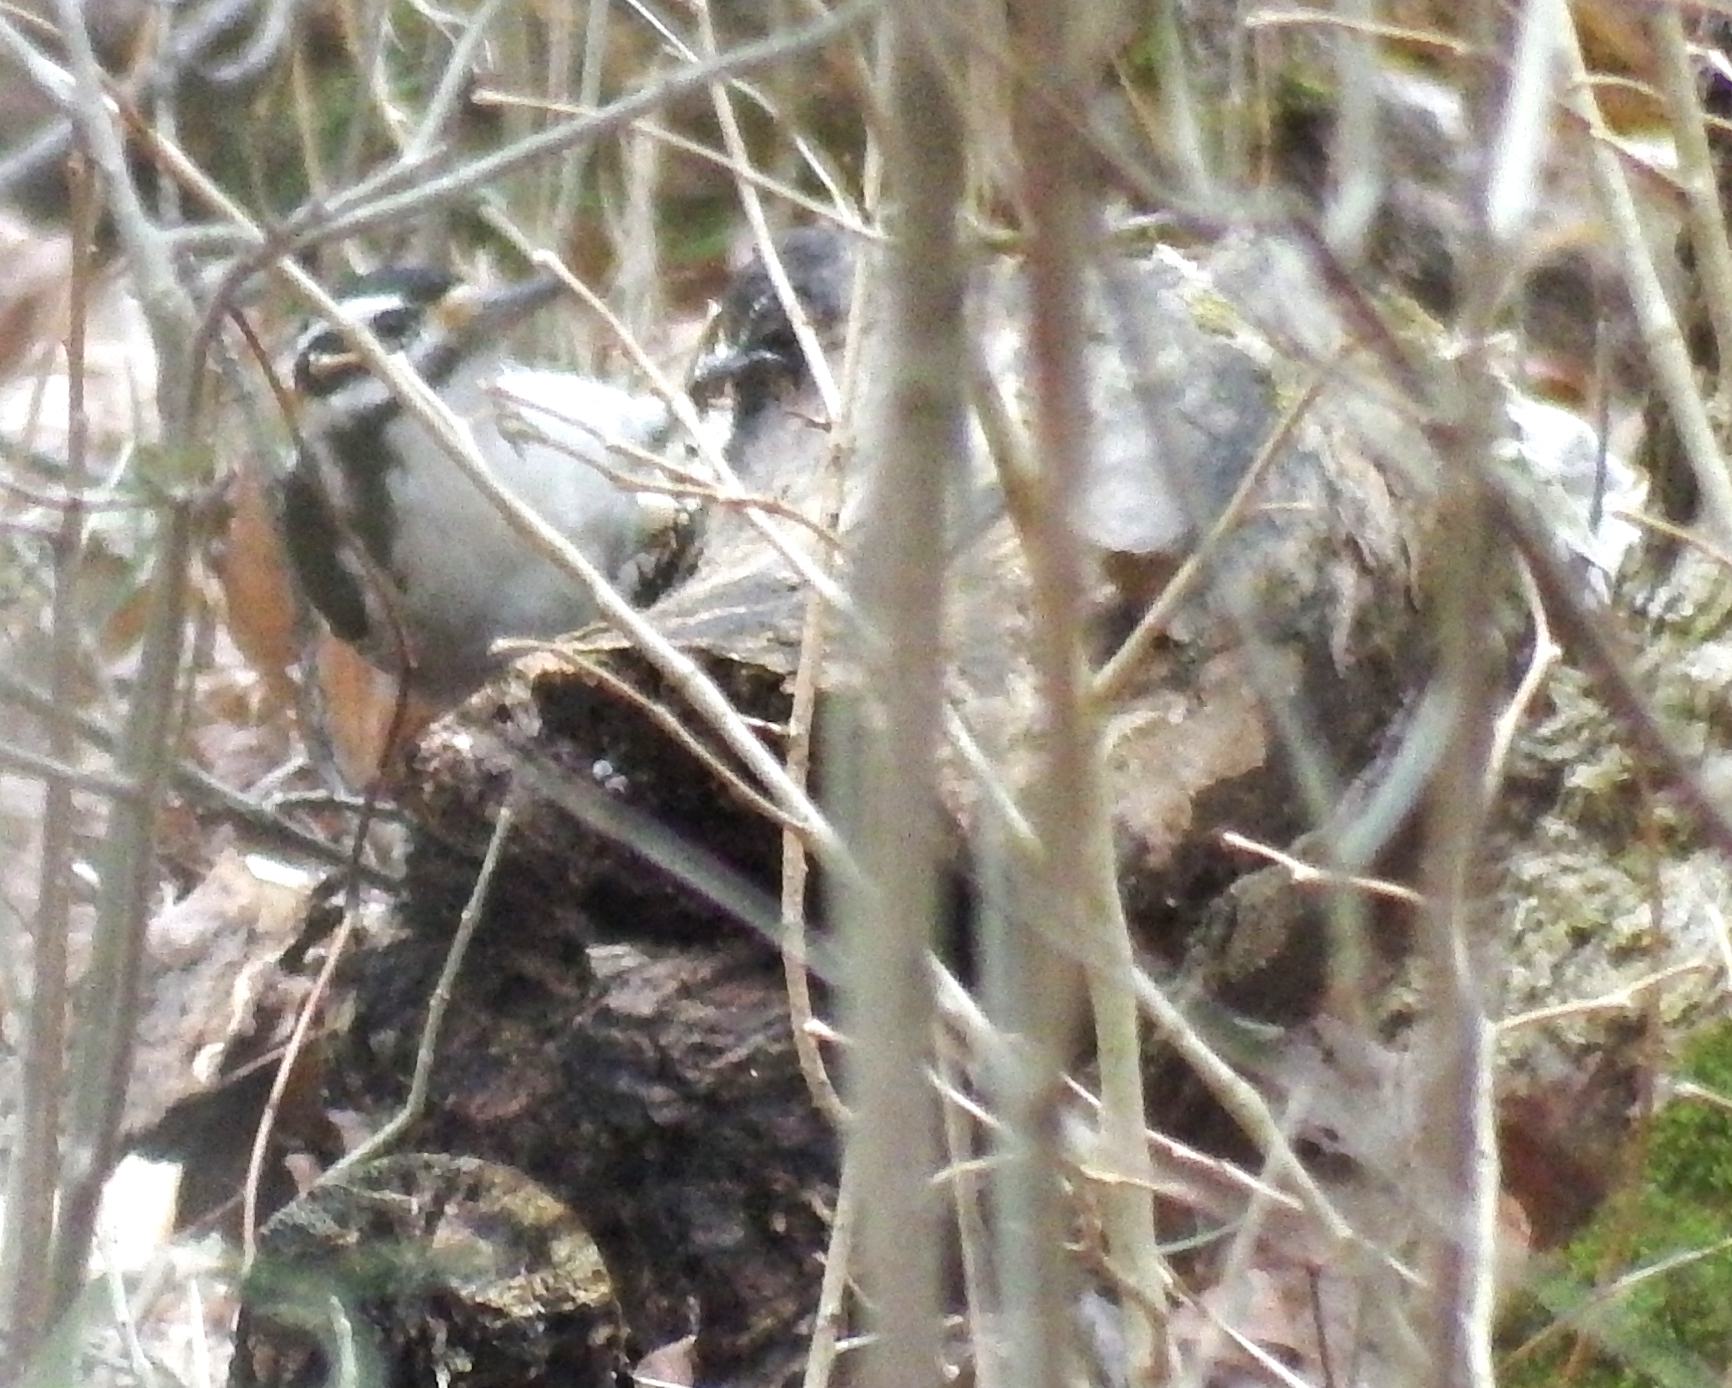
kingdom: Animalia
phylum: Chordata
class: Aves
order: Piciformes
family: Picidae
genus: Dryobates
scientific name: Dryobates pubescens
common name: Downy woodpecker
